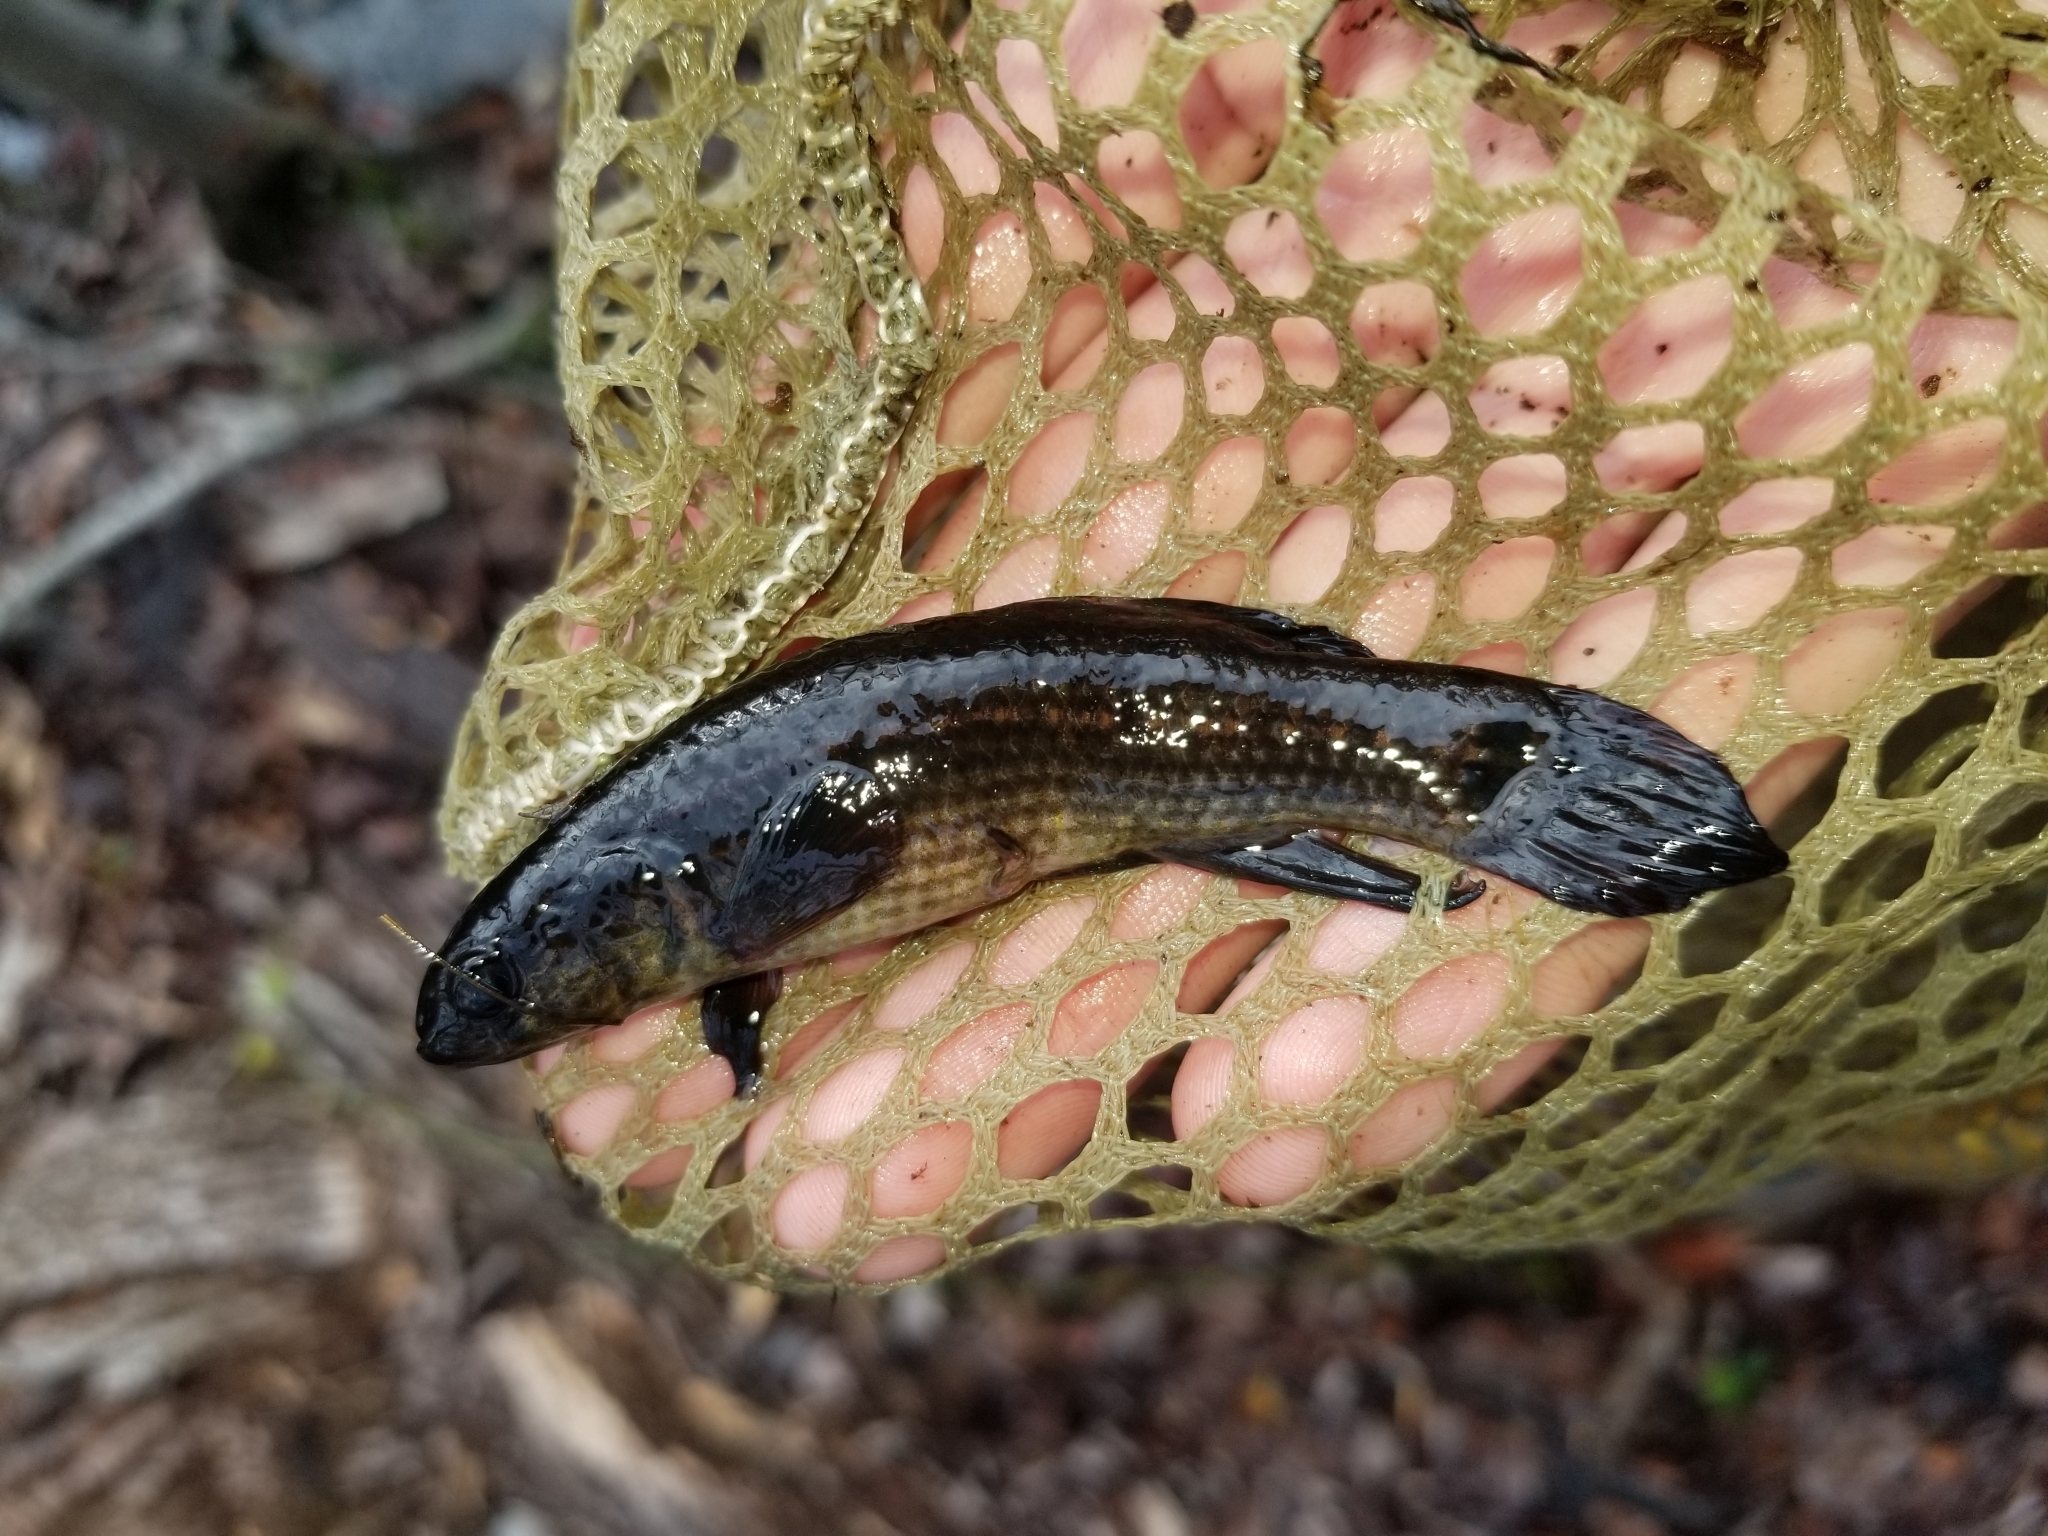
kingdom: Animalia
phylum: Chordata
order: Esociformes
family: Umbridae
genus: Umbra
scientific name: Umbra pygmaea
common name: Eastern mudminnow
